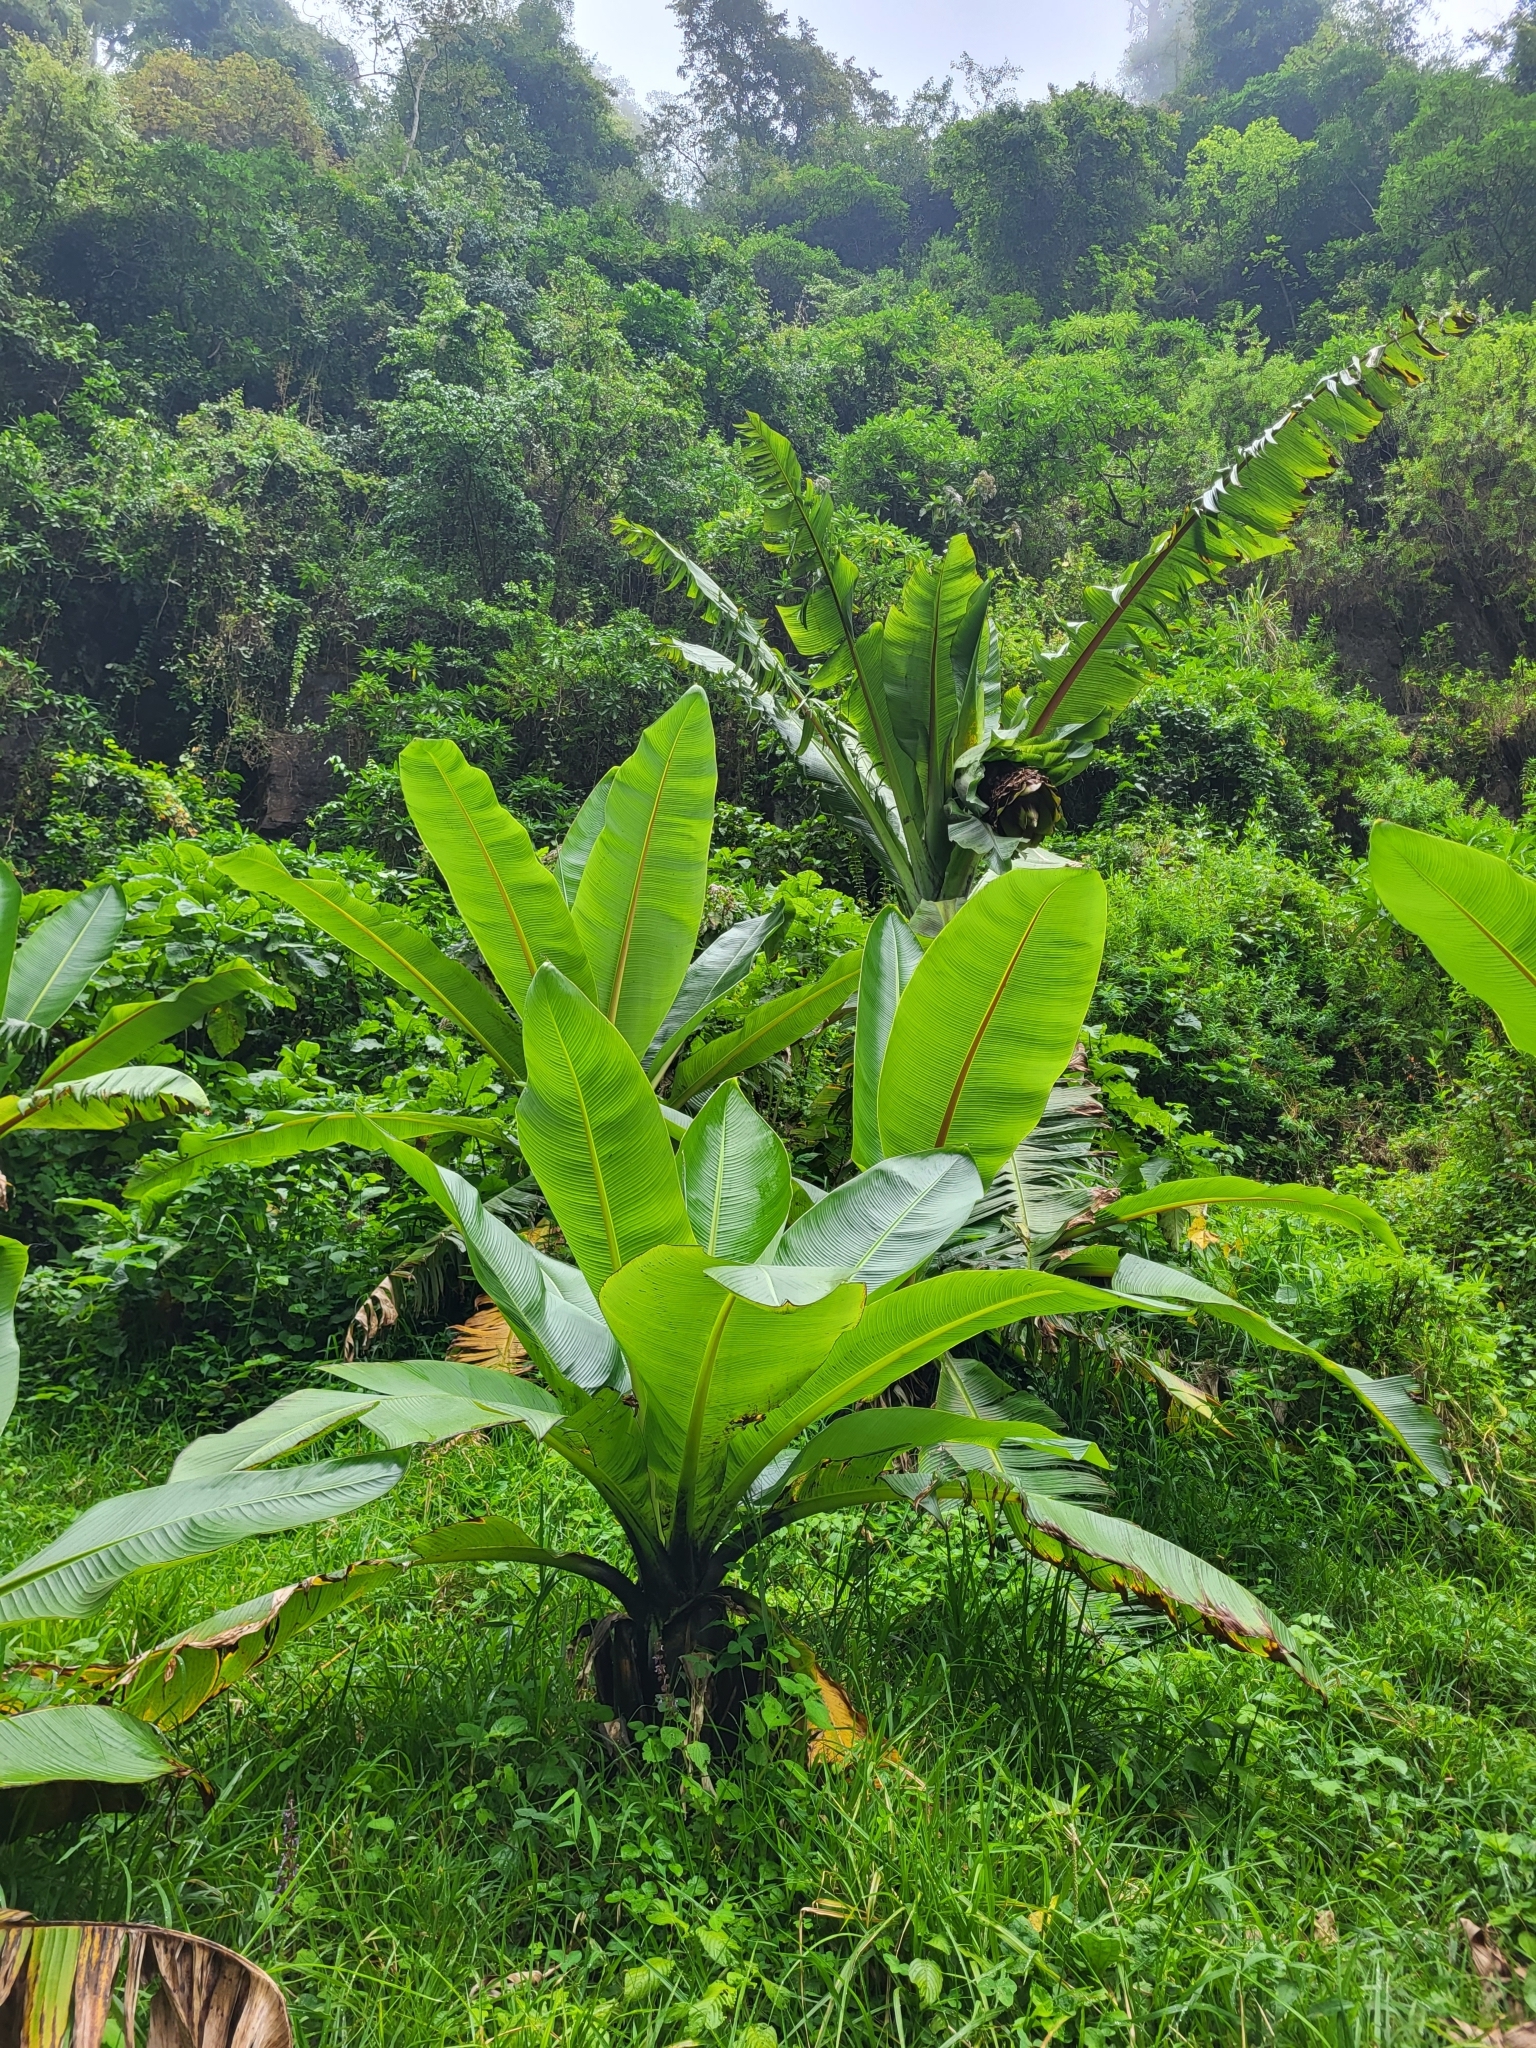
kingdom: Plantae
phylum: Tracheophyta
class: Liliopsida
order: Zingiberales
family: Musaceae
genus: Ensete
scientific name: Ensete ventricosum
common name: Abyssinian banana
